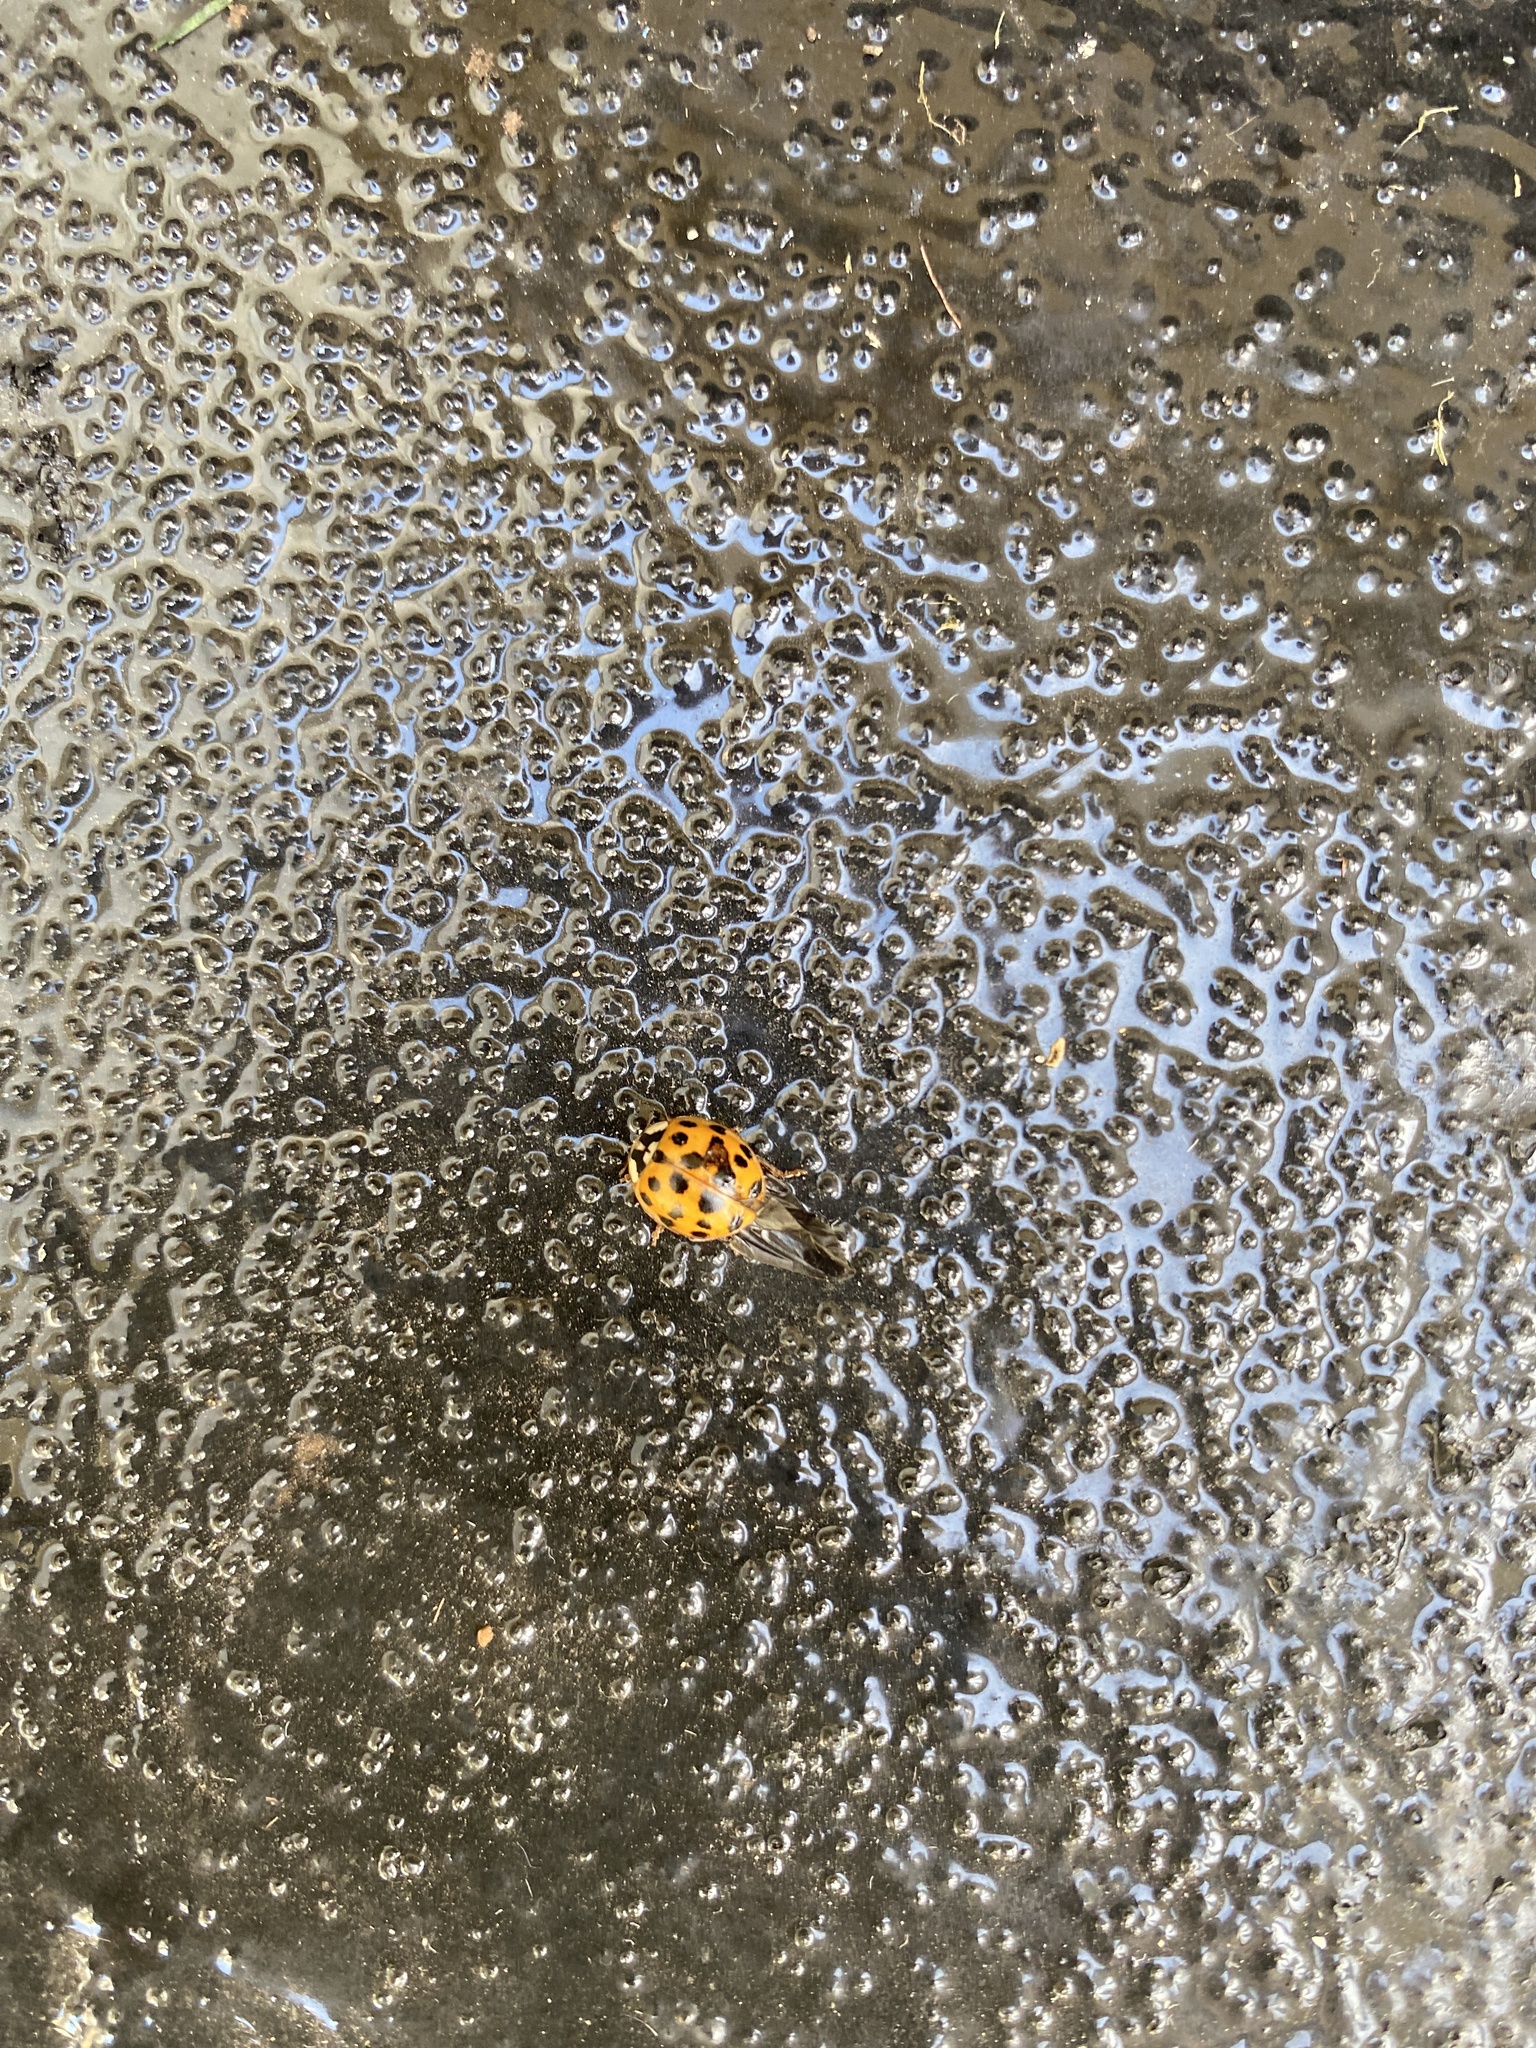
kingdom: Animalia
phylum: Arthropoda
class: Insecta
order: Coleoptera
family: Coccinellidae
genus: Harmonia
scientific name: Harmonia axyridis
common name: Harlequin ladybird
